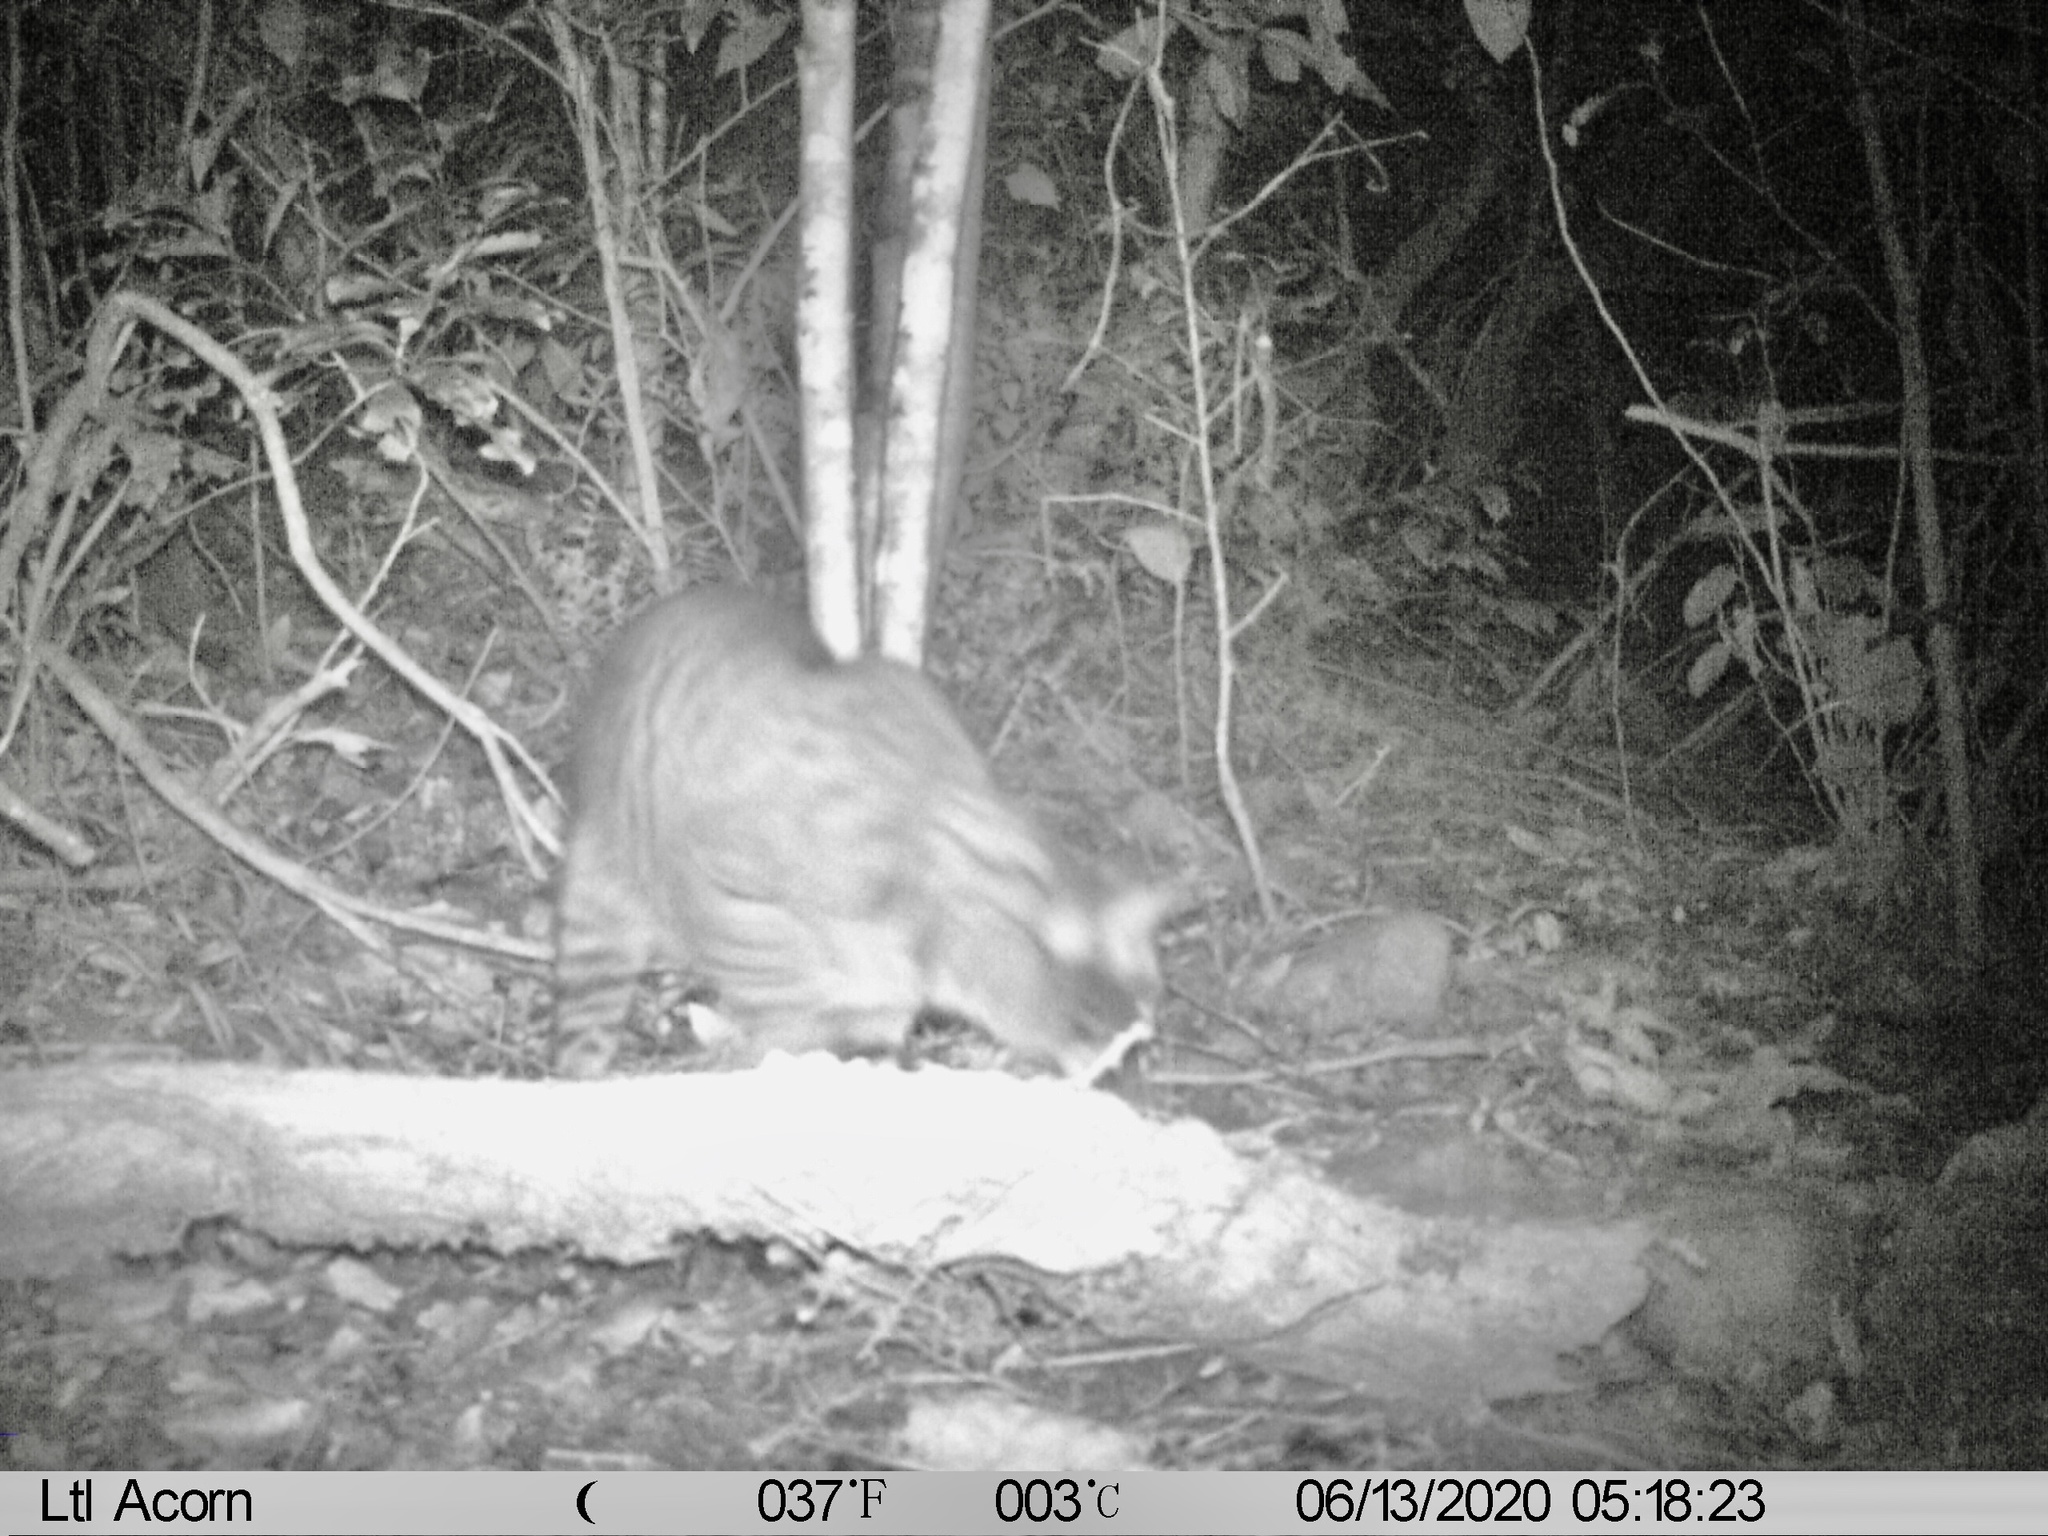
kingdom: Animalia
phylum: Chordata
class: Mammalia
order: Carnivora
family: Felidae
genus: Felis
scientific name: Felis catus
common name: Domestic cat
